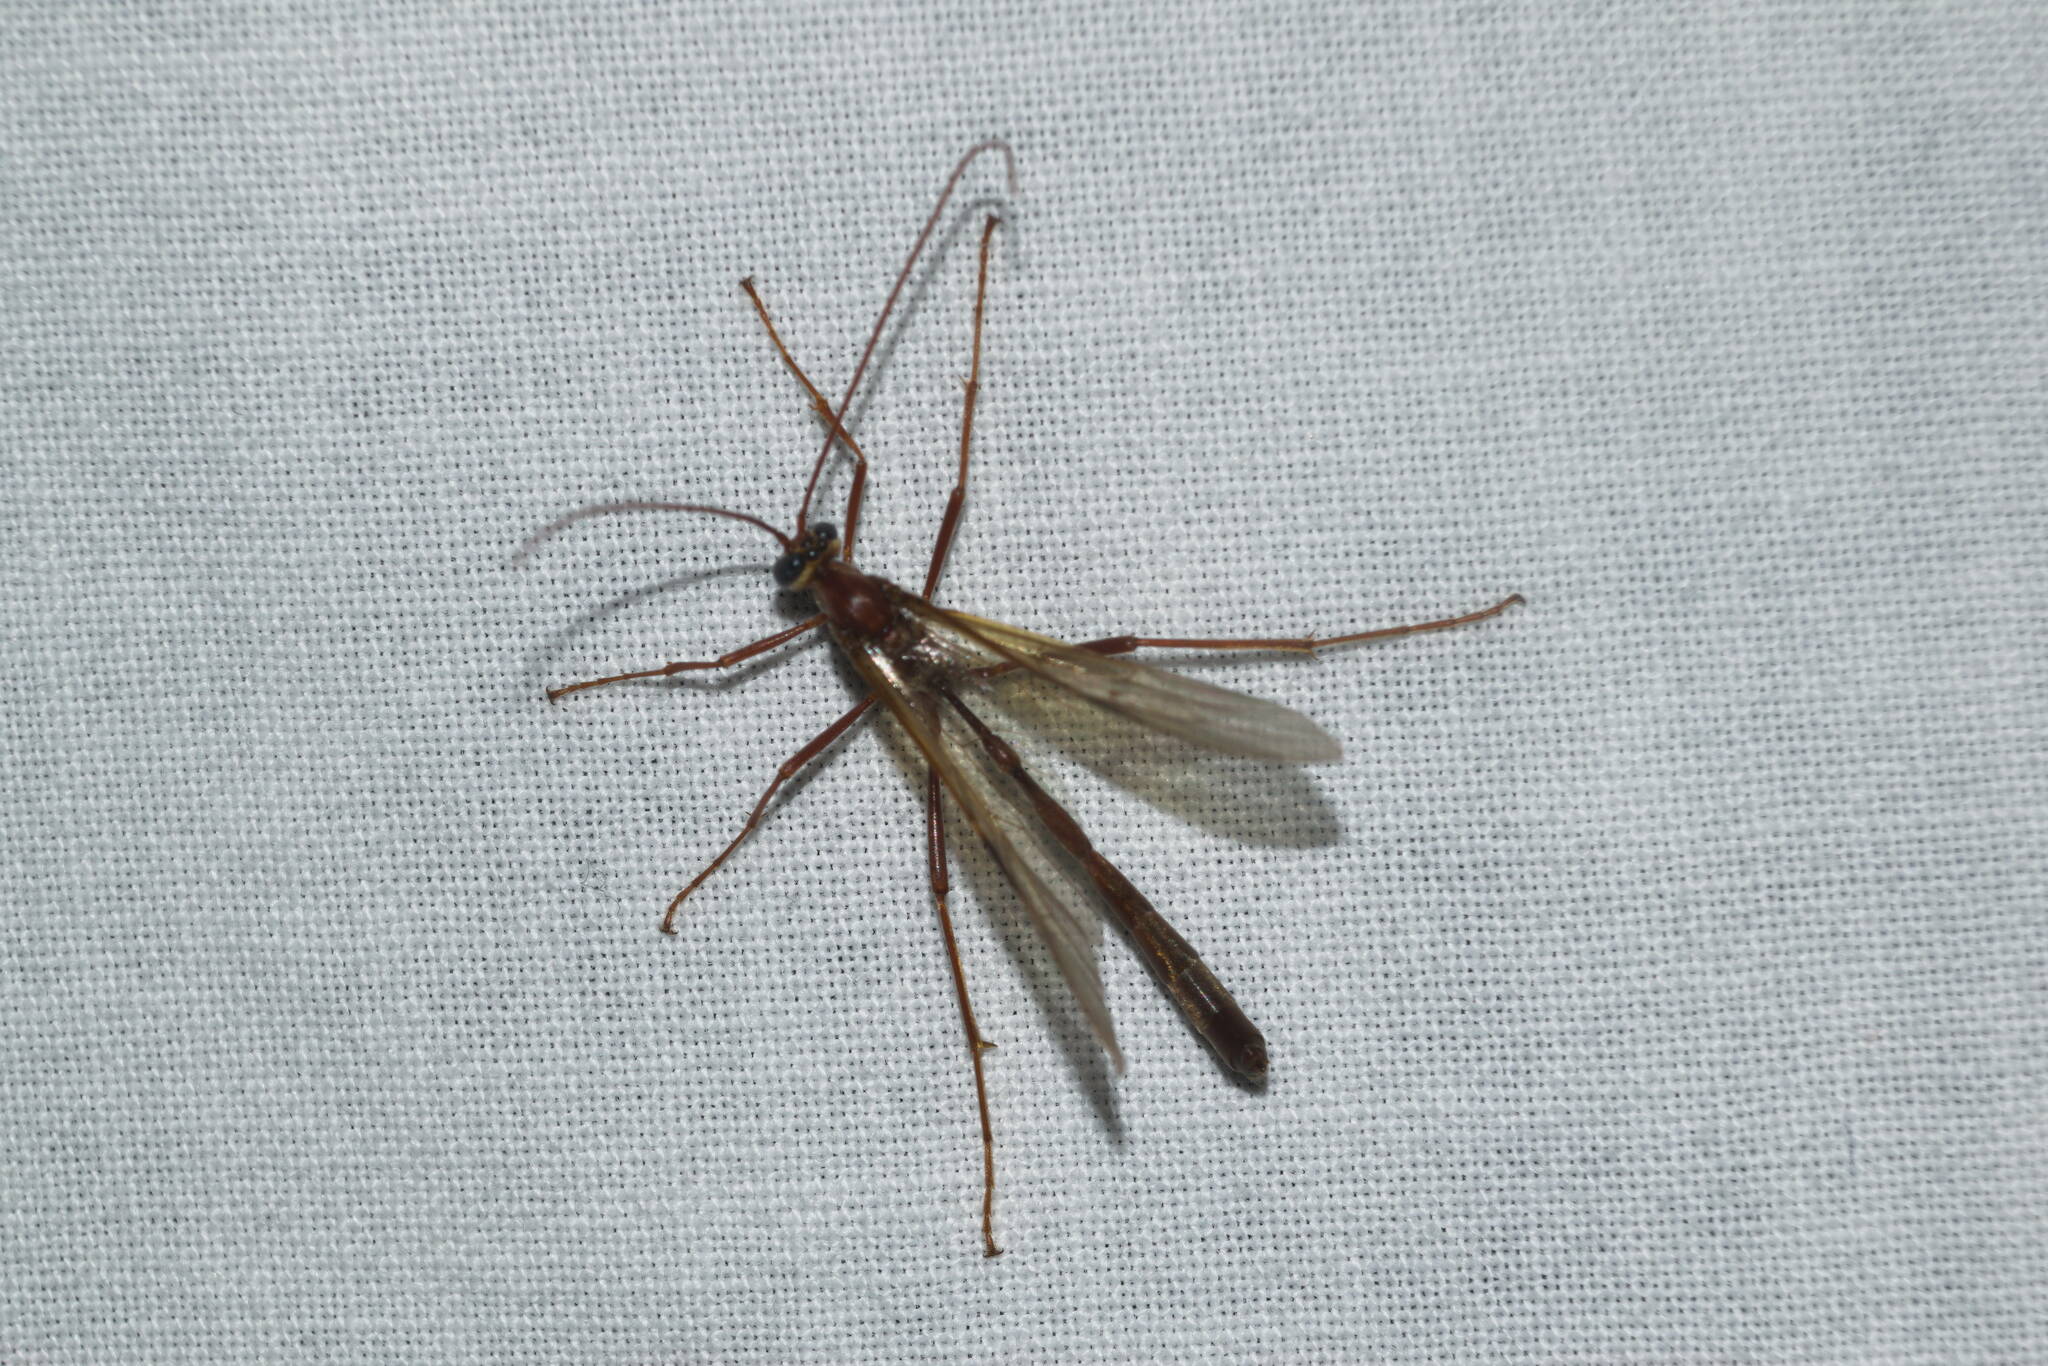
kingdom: Animalia
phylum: Arthropoda
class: Insecta
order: Hymenoptera
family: Ichneumonidae
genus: Enicospilus
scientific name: Enicospilus longicornis
